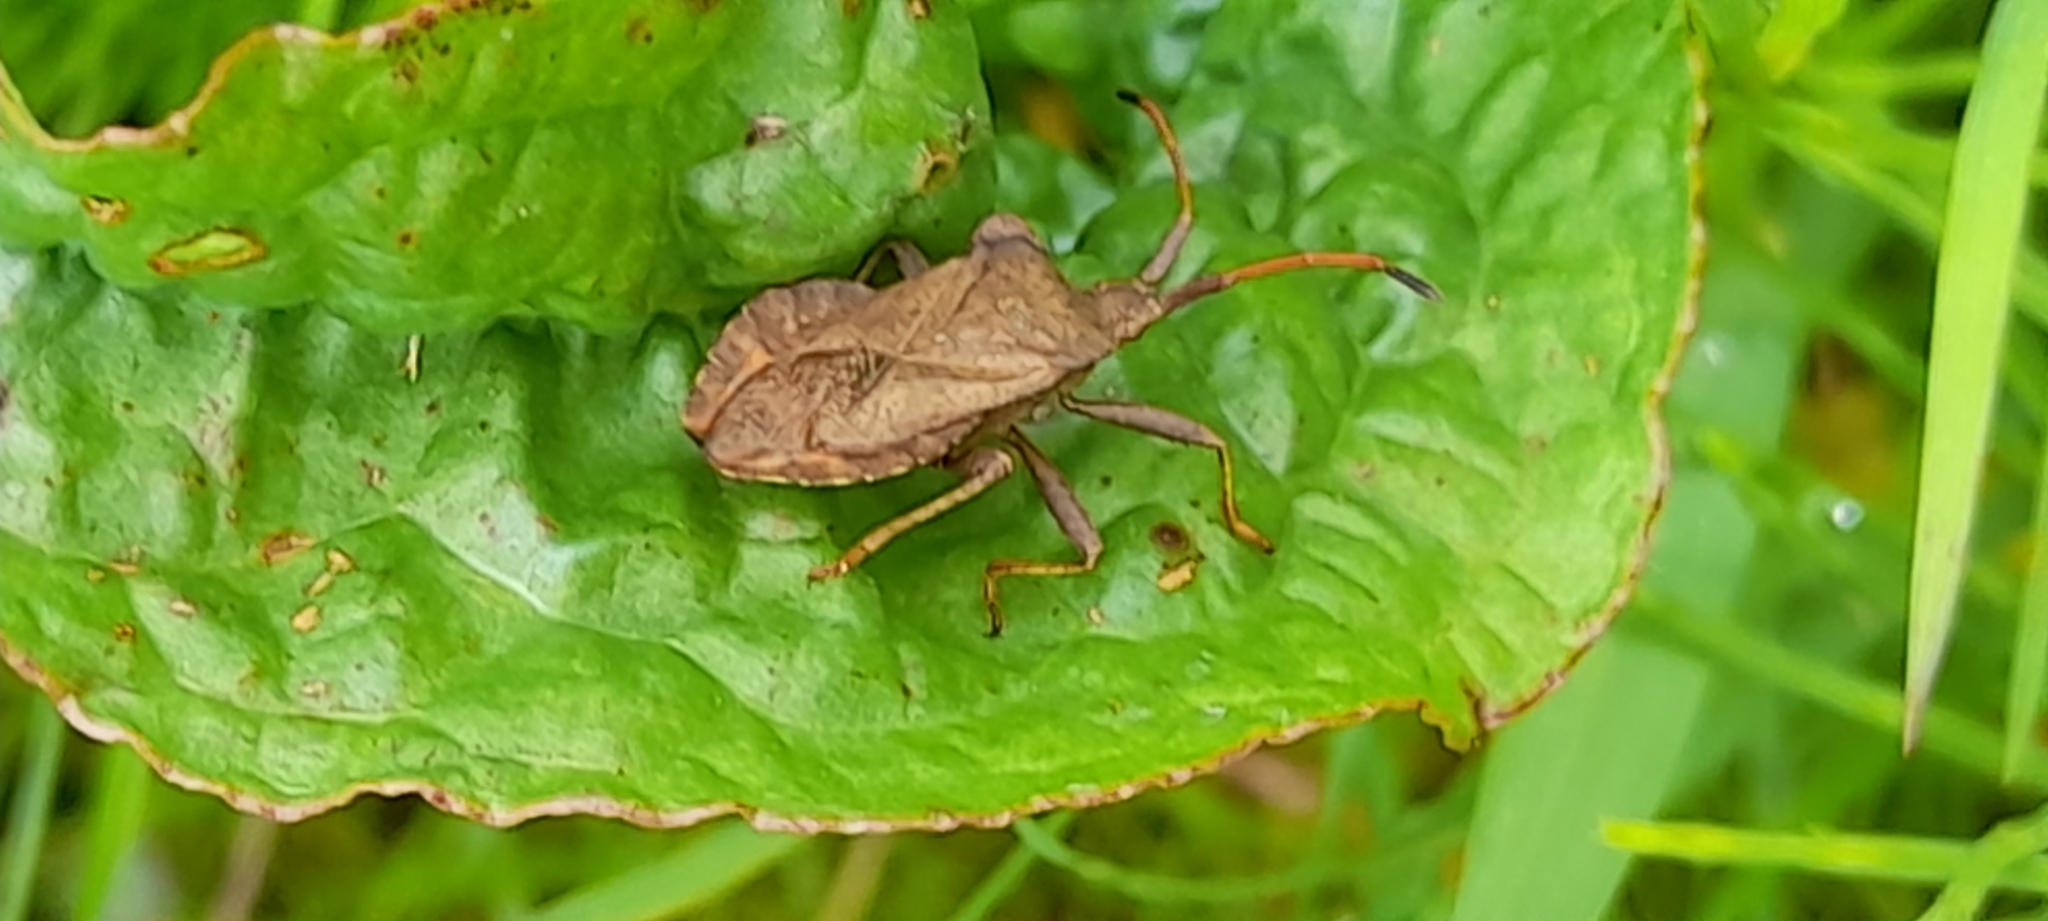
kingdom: Animalia
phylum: Arthropoda
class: Insecta
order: Hemiptera
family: Coreidae
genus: Coreus
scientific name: Coreus marginatus
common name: Dock bug
